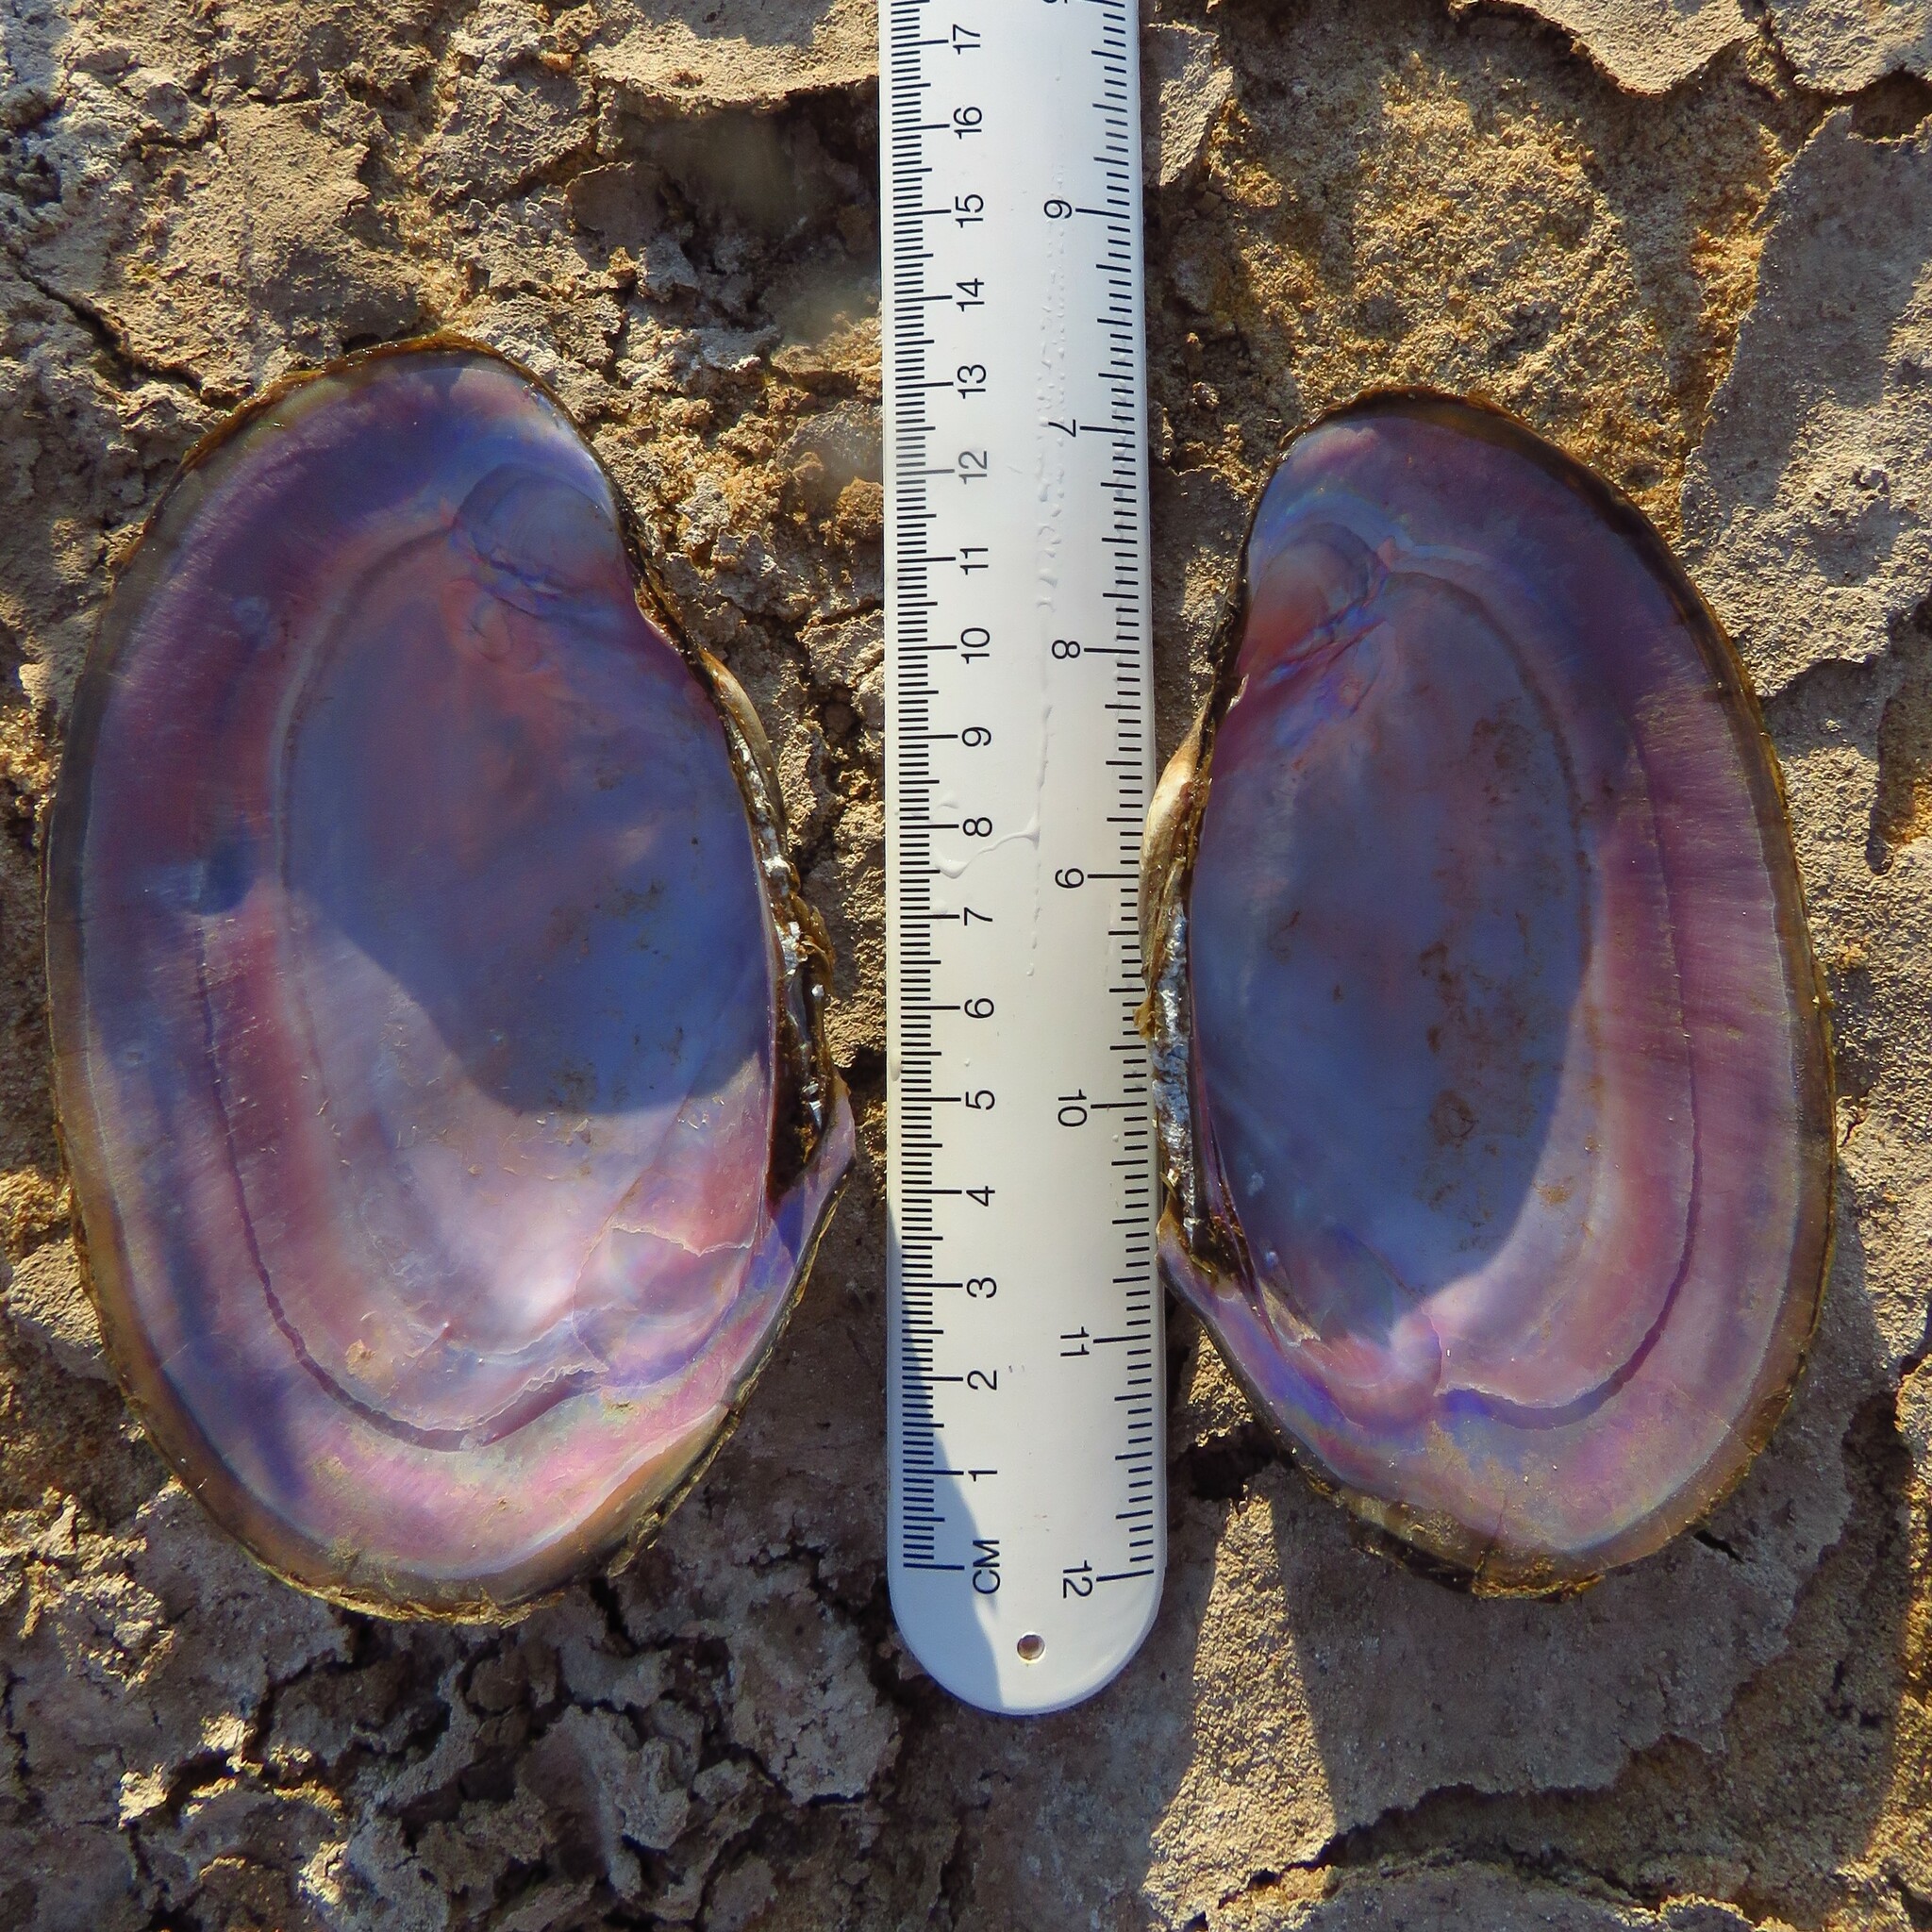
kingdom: Animalia
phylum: Mollusca
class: Bivalvia
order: Unionida
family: Unionidae
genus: Potamilus
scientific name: Potamilus ohiensis
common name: Pink papershell
